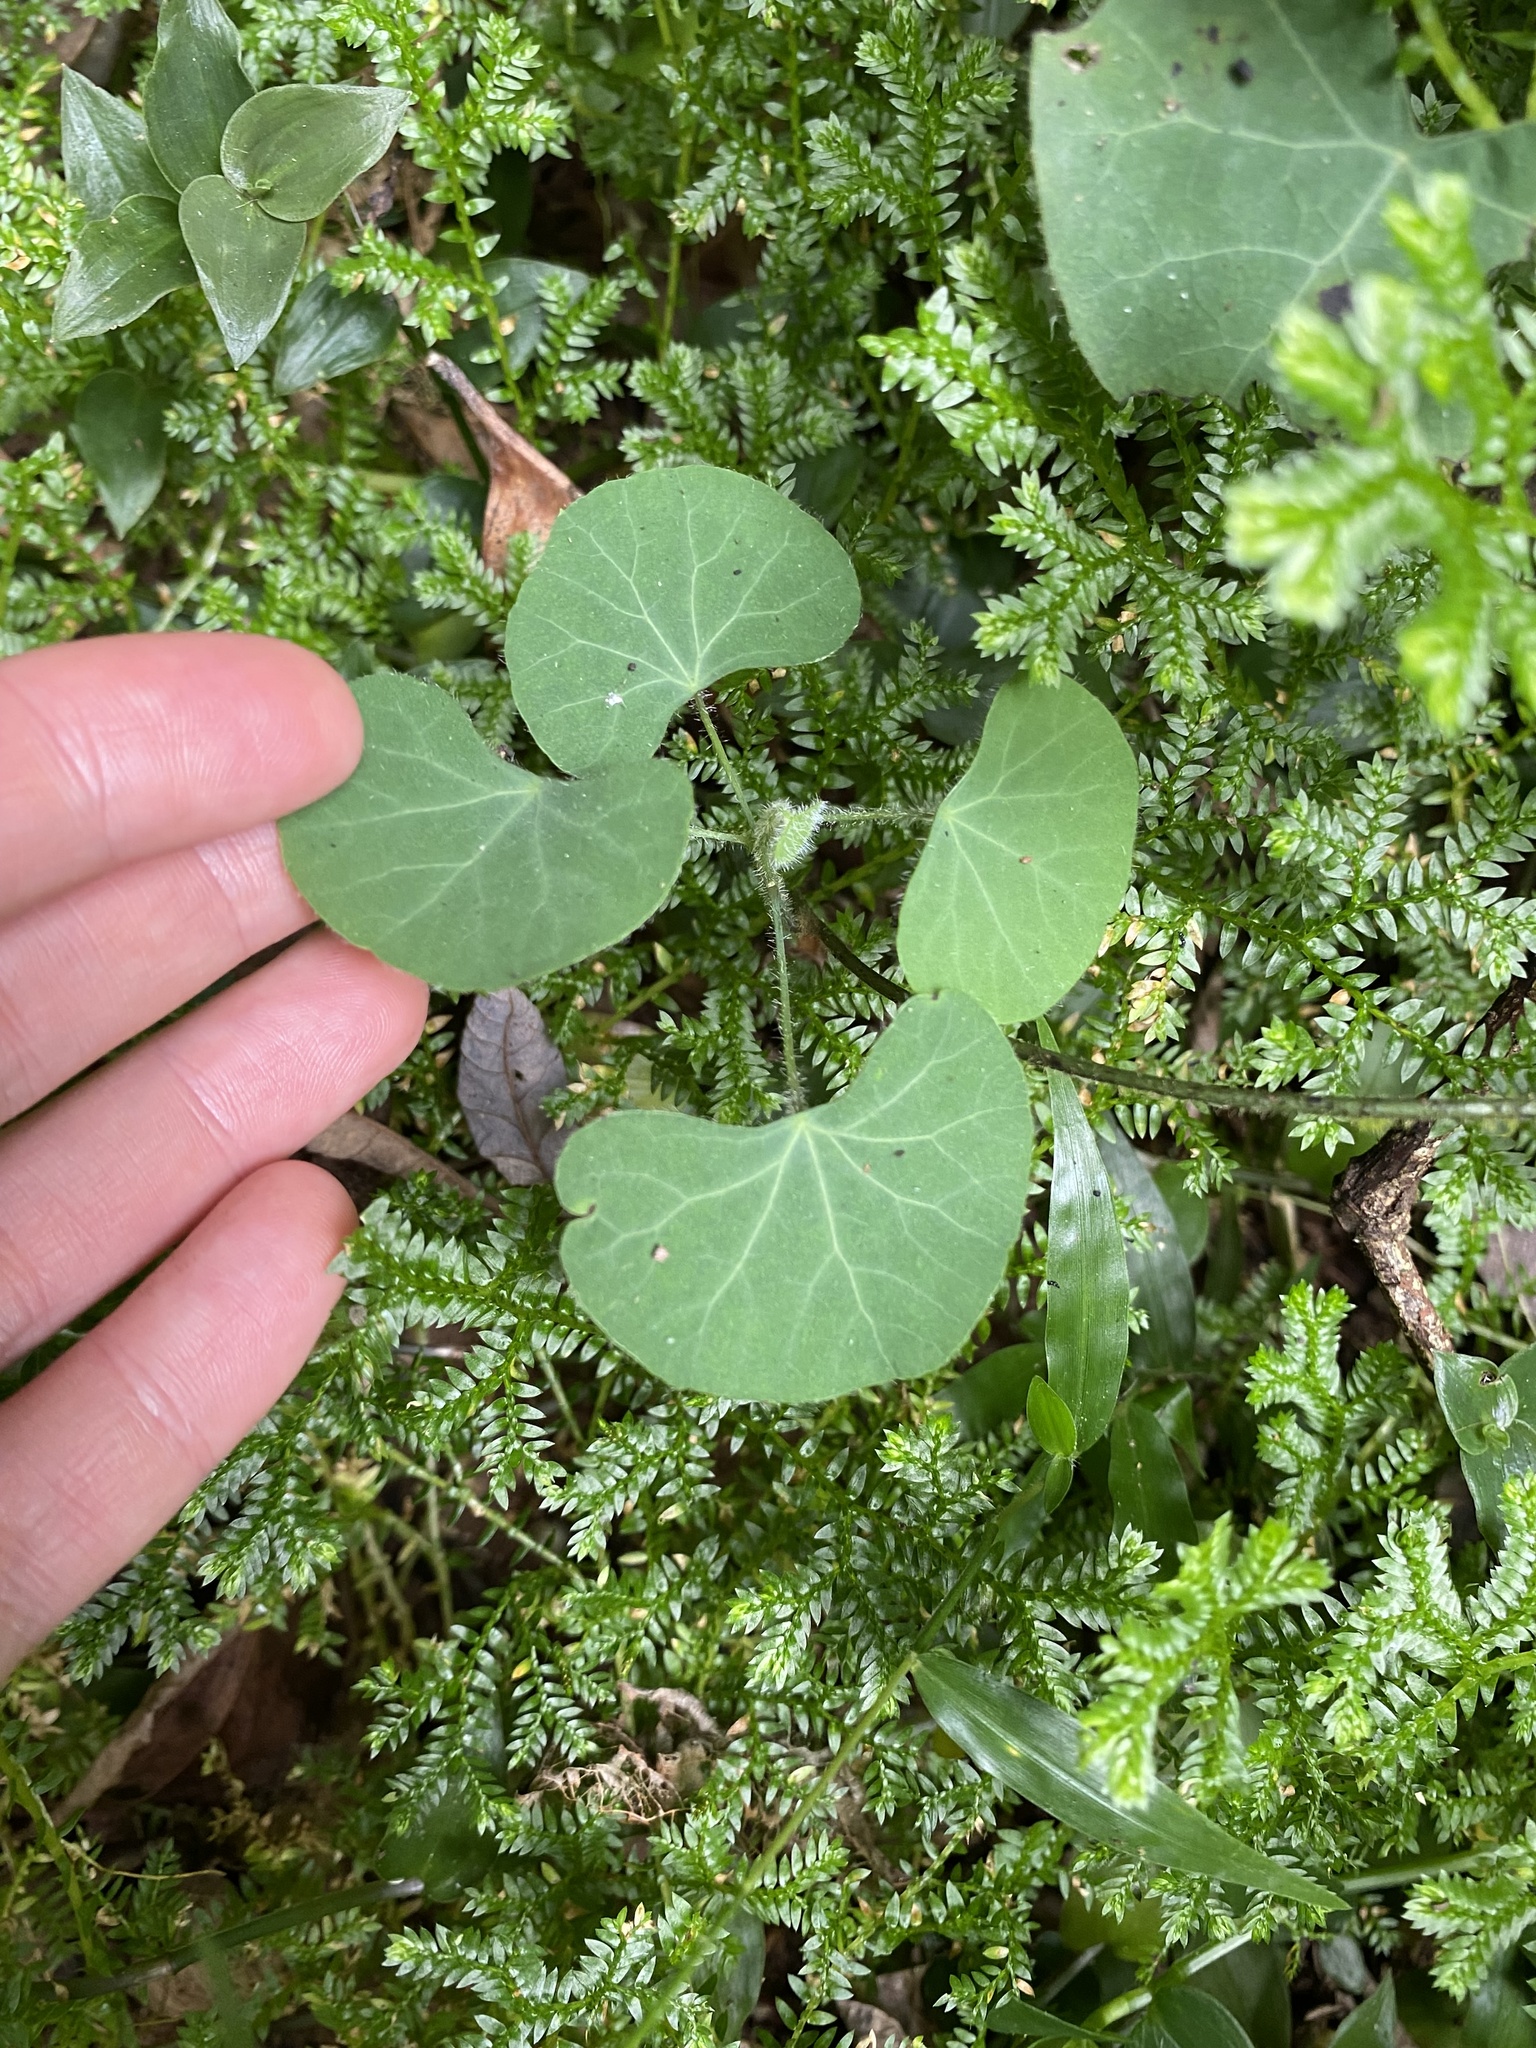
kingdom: Plantae
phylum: Tracheophyta
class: Magnoliopsida
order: Ranunculales
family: Menispermaceae
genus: Cissampelos
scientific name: Cissampelos torulosa
